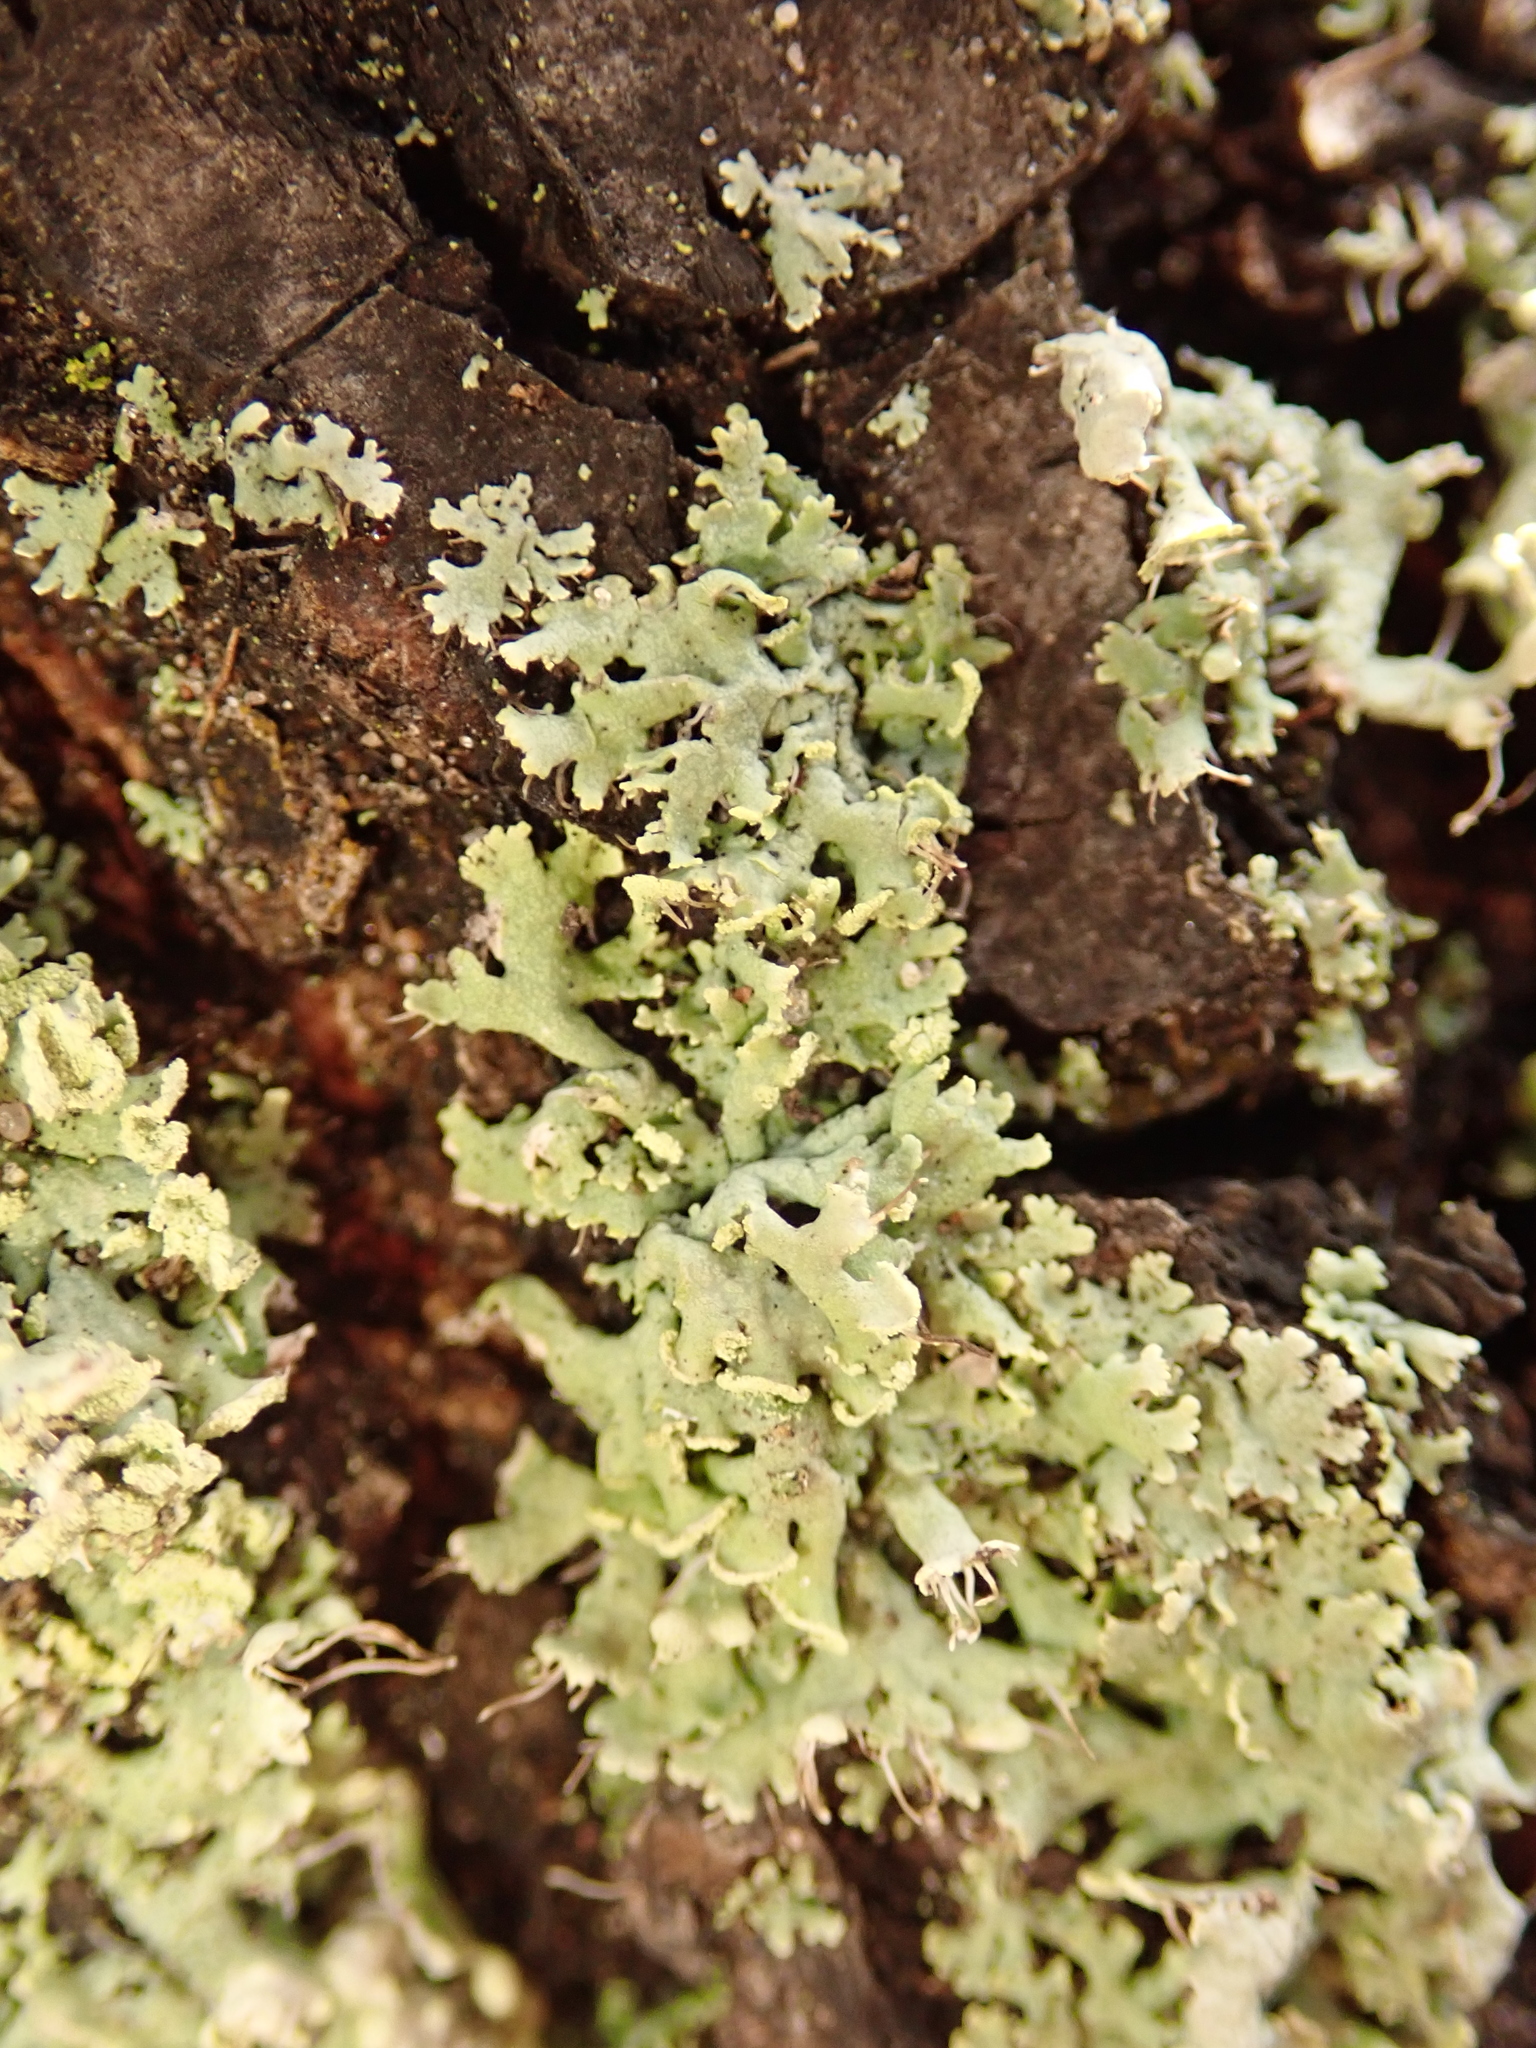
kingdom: Fungi
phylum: Ascomycota
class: Lecanoromycetes
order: Caliciales
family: Physciaceae
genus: Physcia
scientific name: Physcia tenella
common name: Fringed rosette lichen
